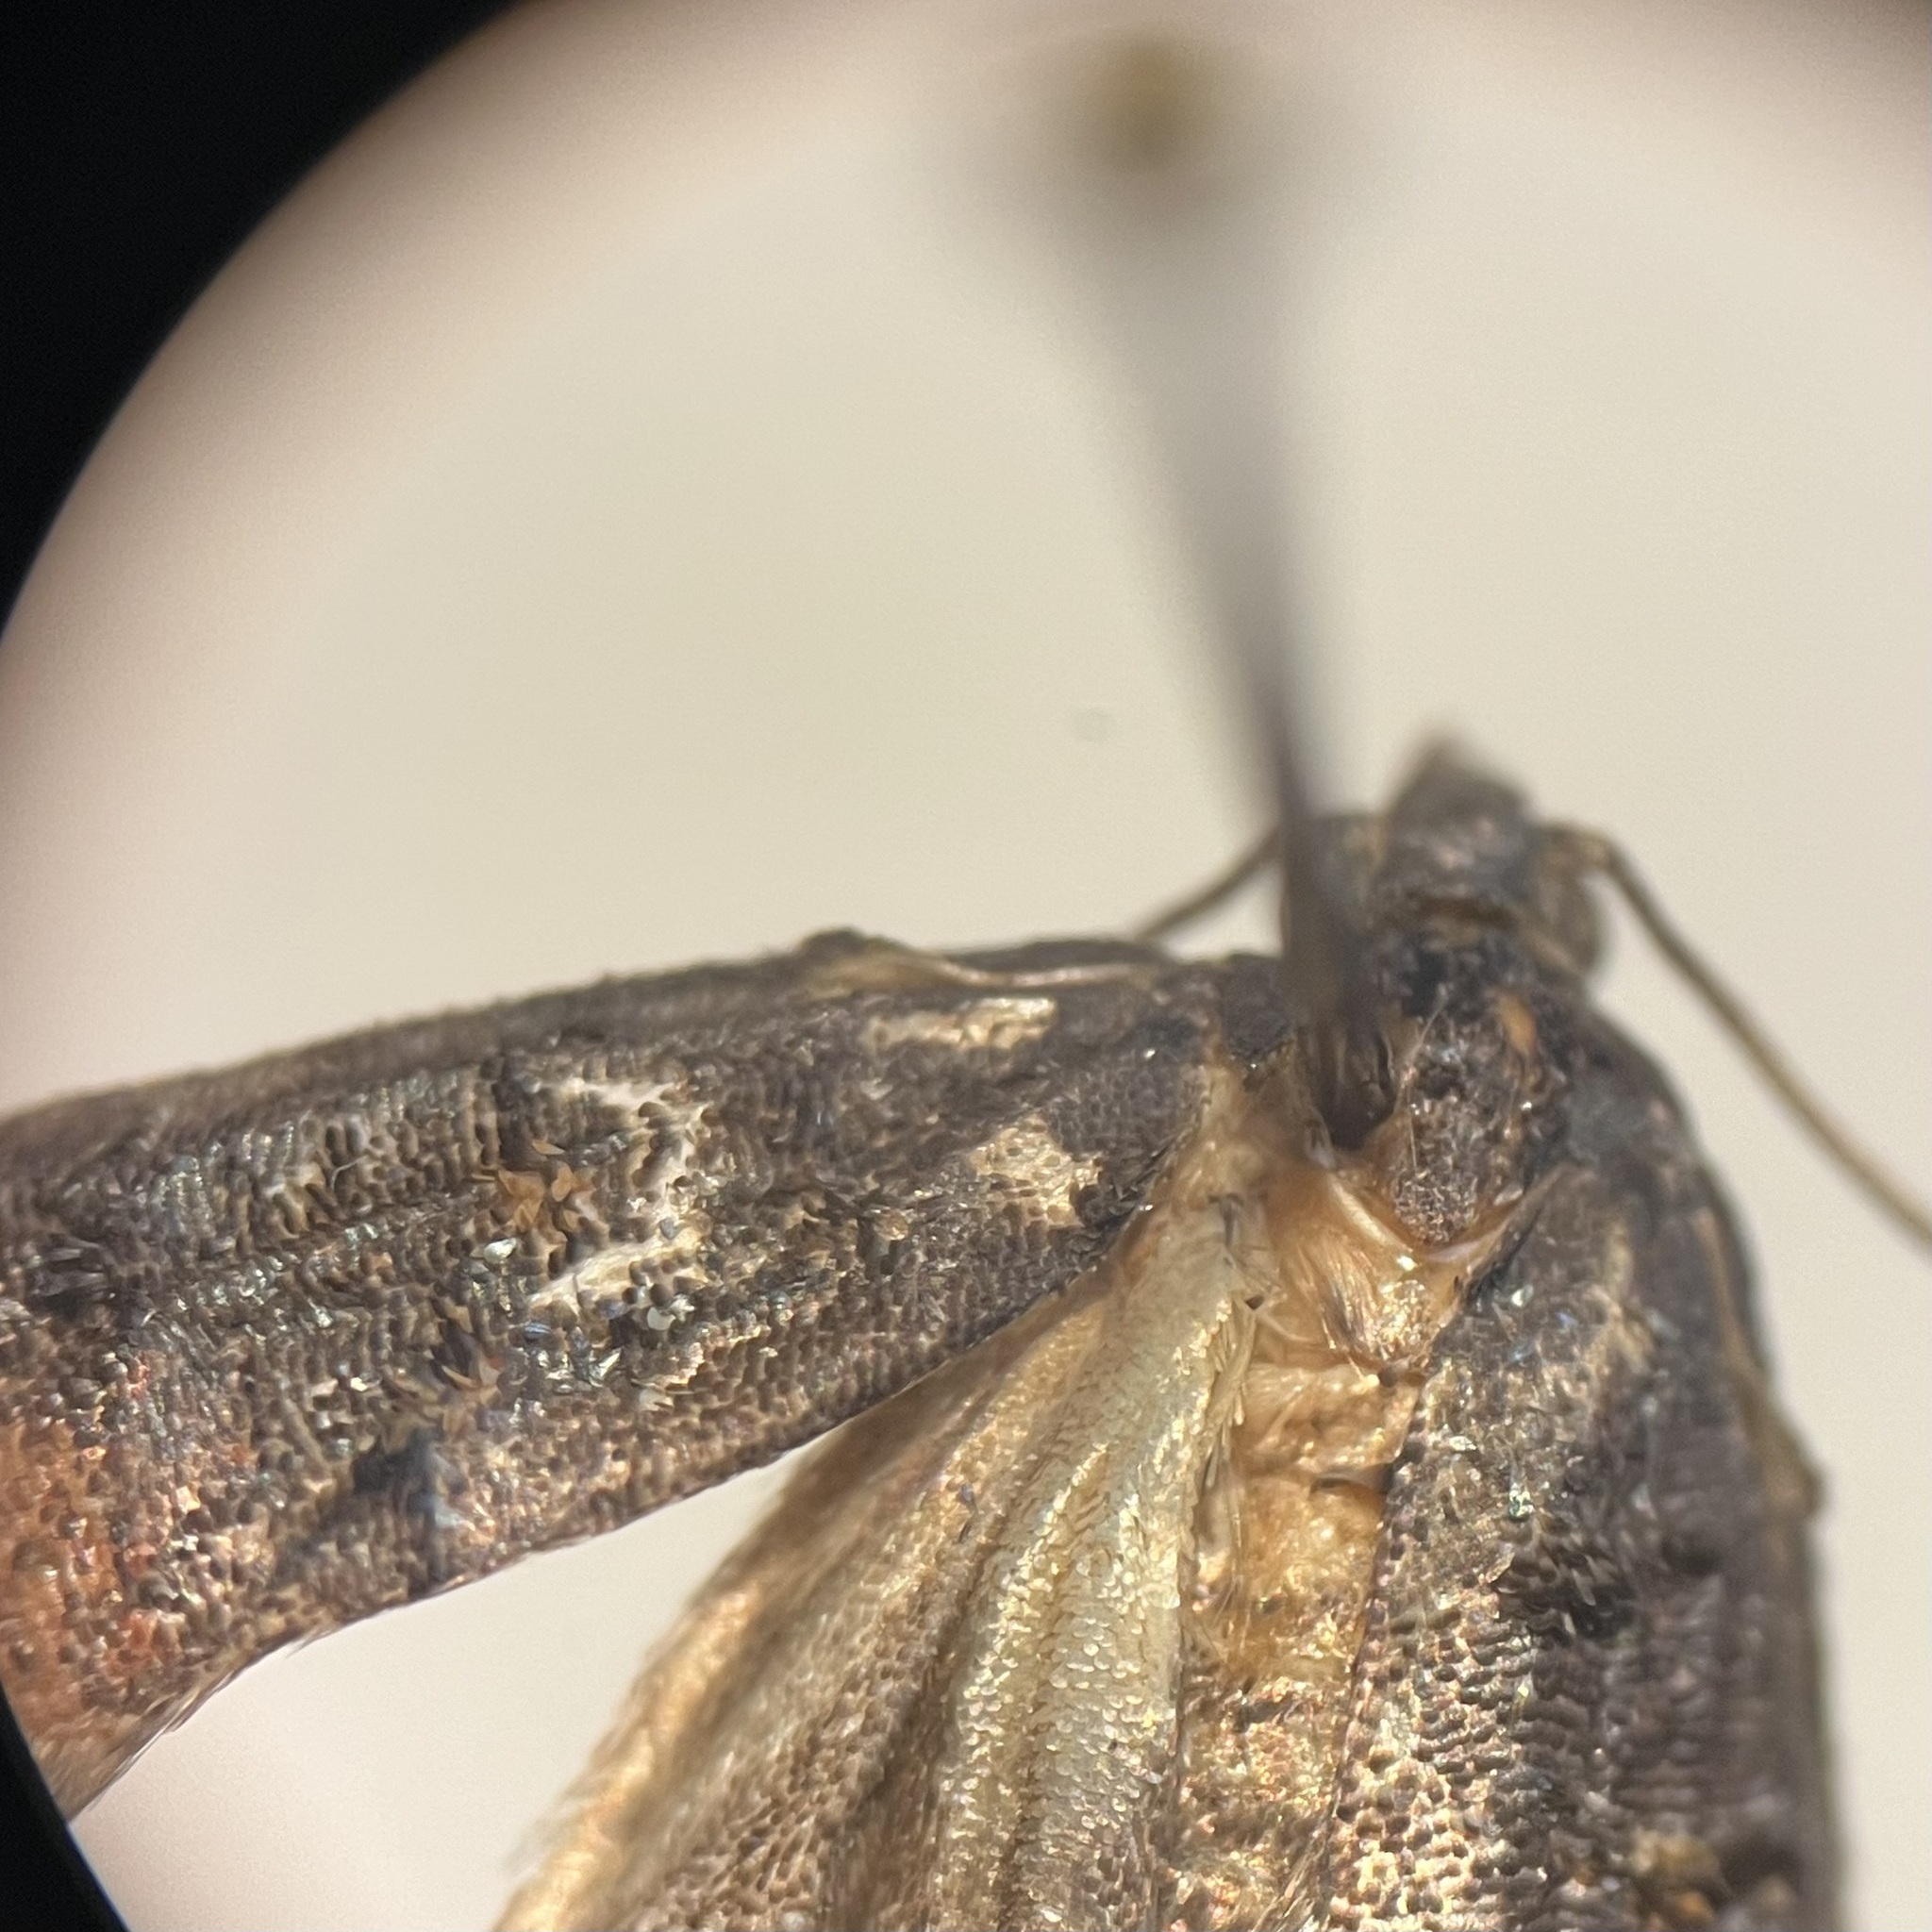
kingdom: Animalia
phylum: Arthropoda
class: Insecta
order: Lepidoptera
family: Tortricidae
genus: Platynota
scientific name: Platynota semiustana
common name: Singed platynota
